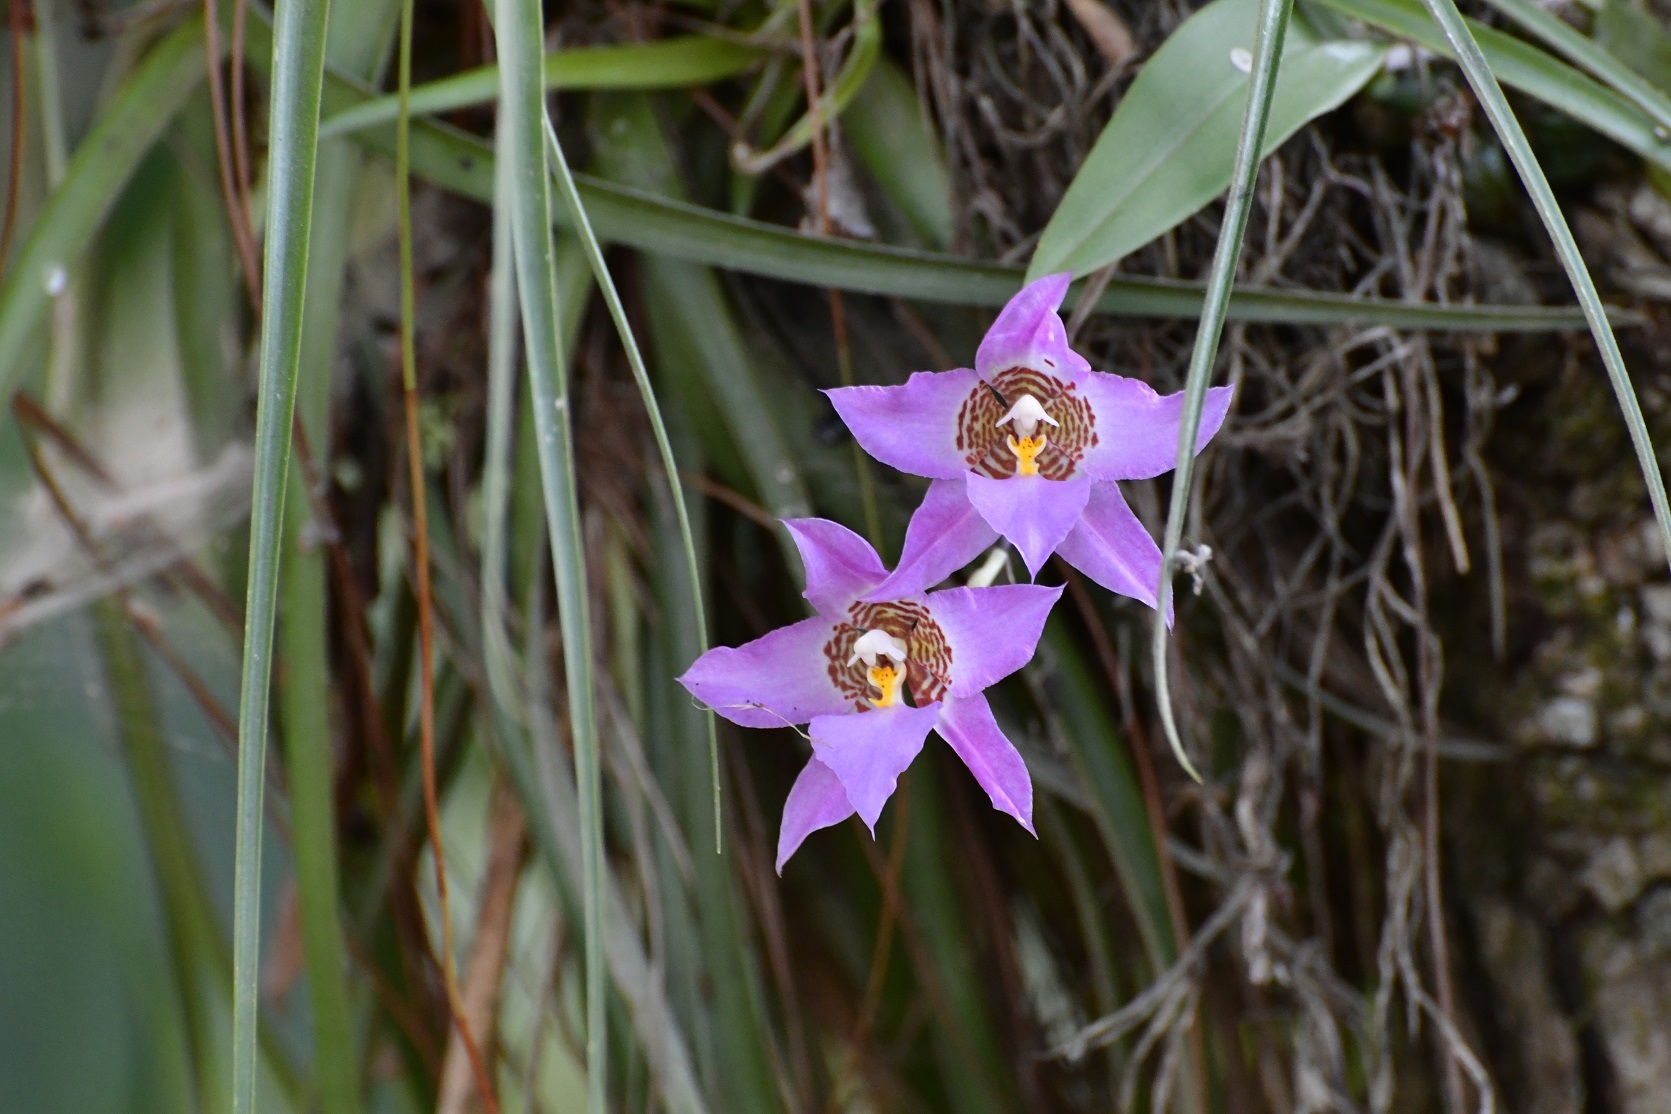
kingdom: Plantae
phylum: Tracheophyta
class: Liliopsida
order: Asparagales
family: Orchidaceae
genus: Rhynchostele
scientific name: Rhynchostele cervantesii
